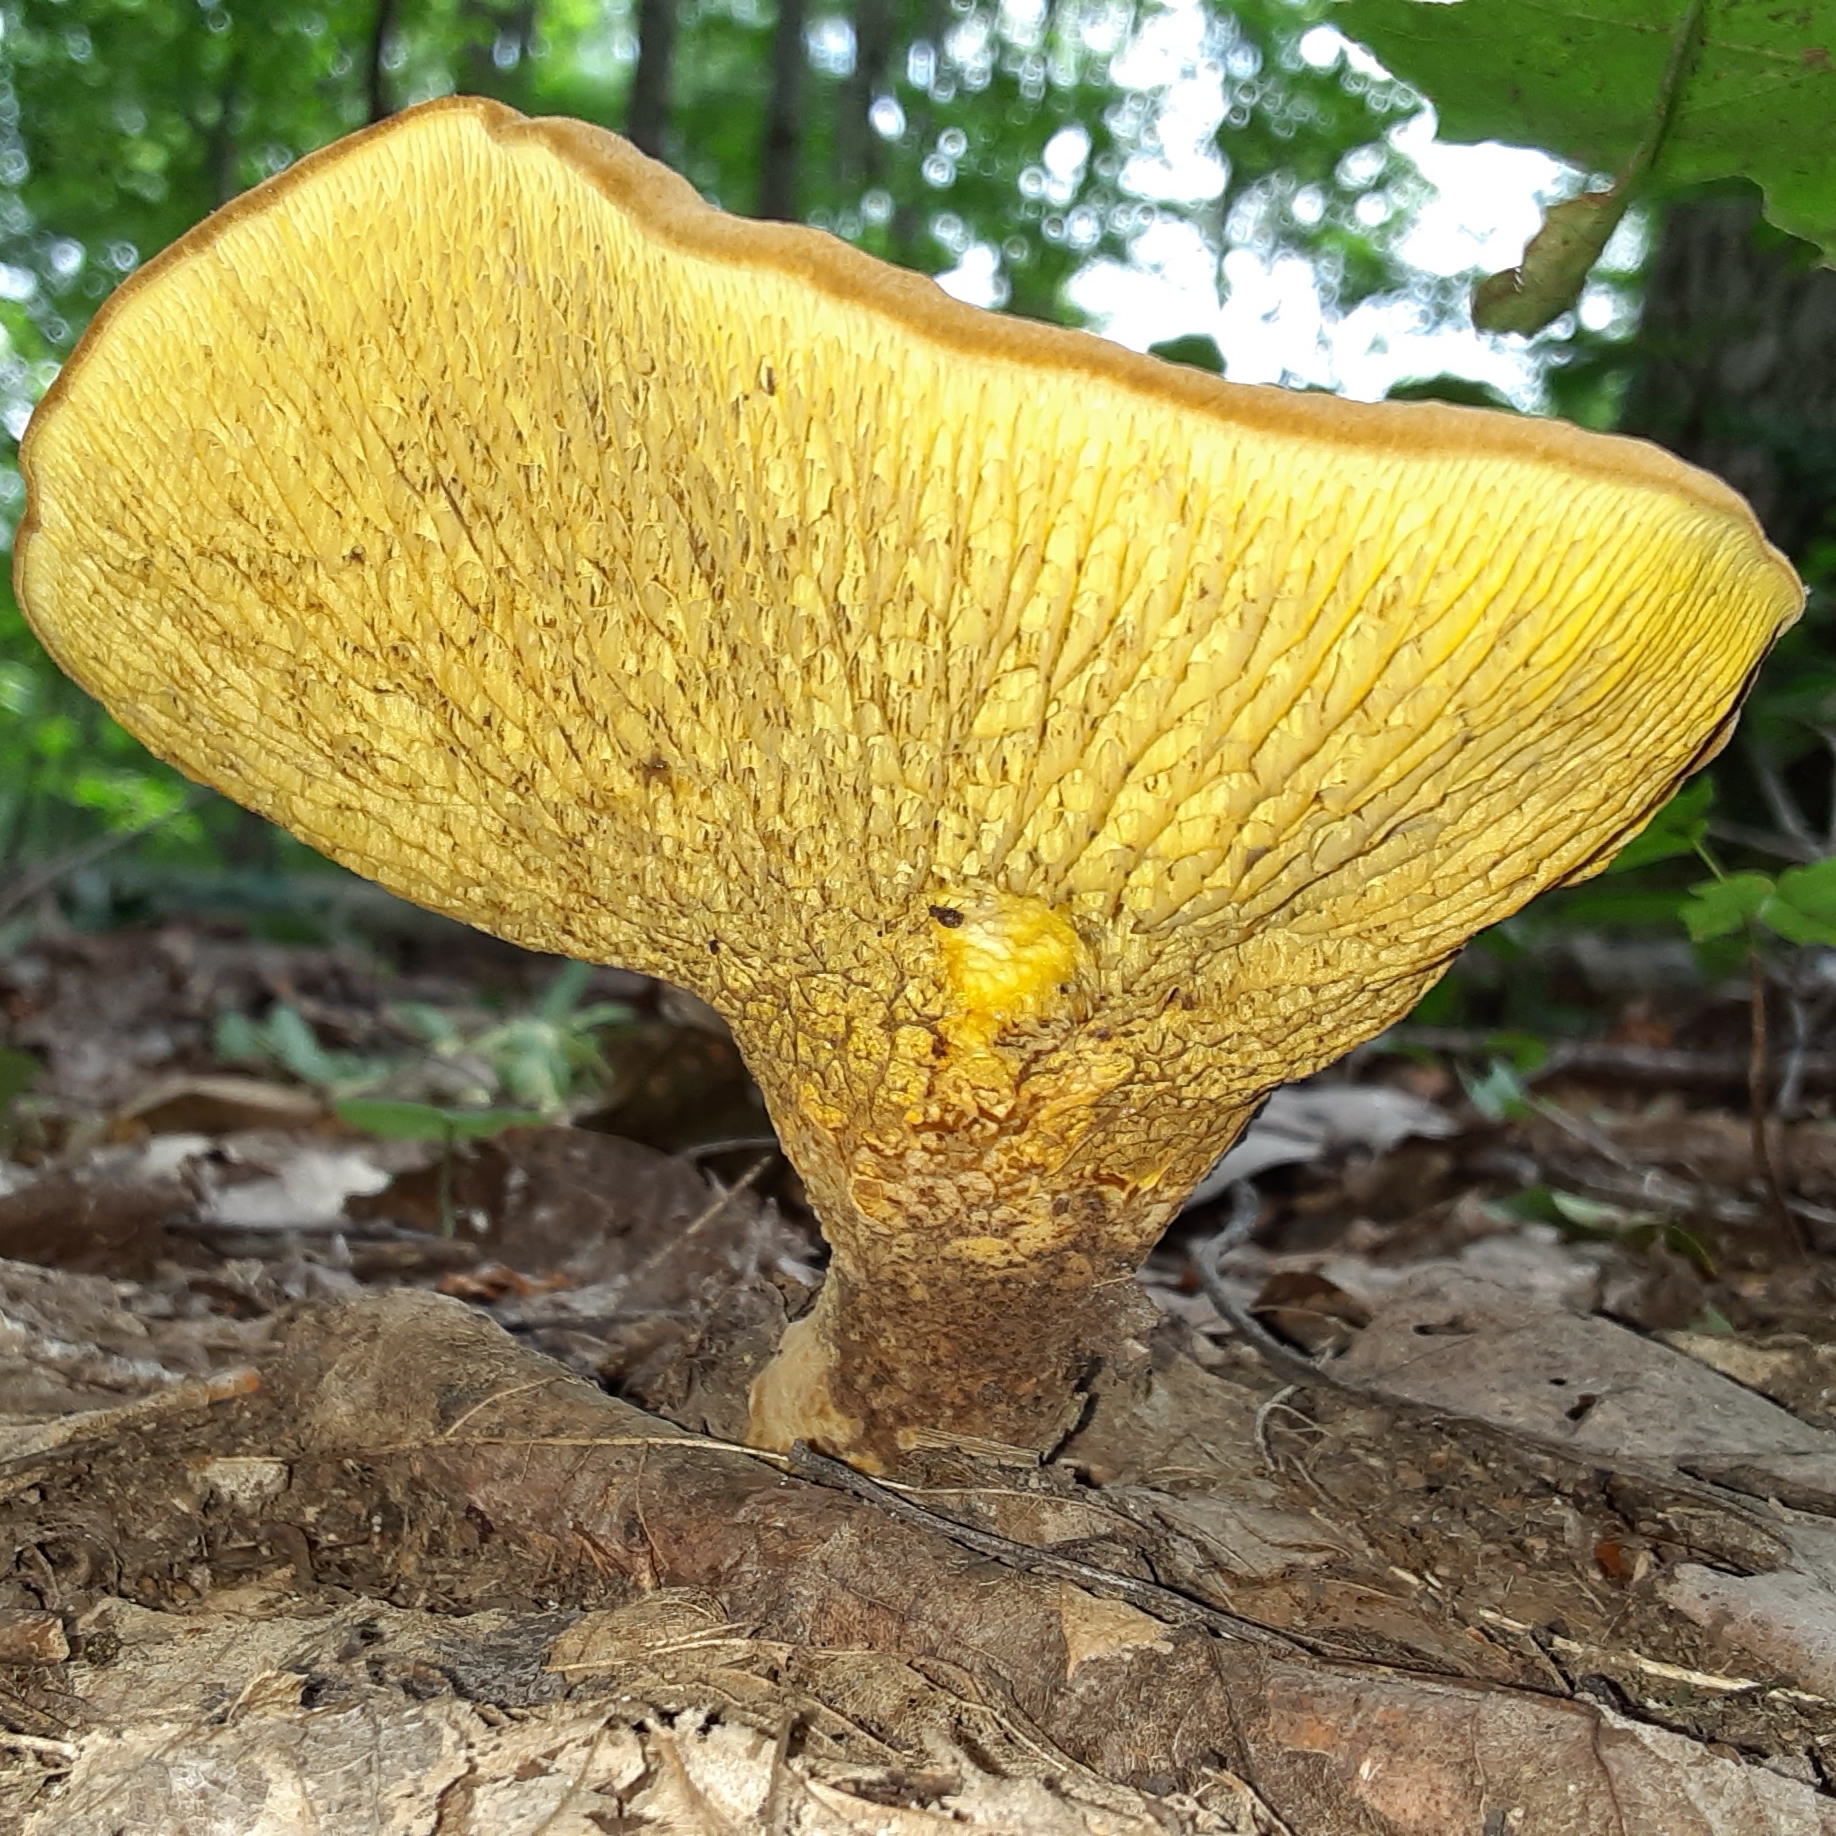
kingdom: Fungi
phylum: Basidiomycota
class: Agaricomycetes
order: Boletales
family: Boletinellaceae
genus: Boletinellus
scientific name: Boletinellus merulioides
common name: Ash tree bolete
